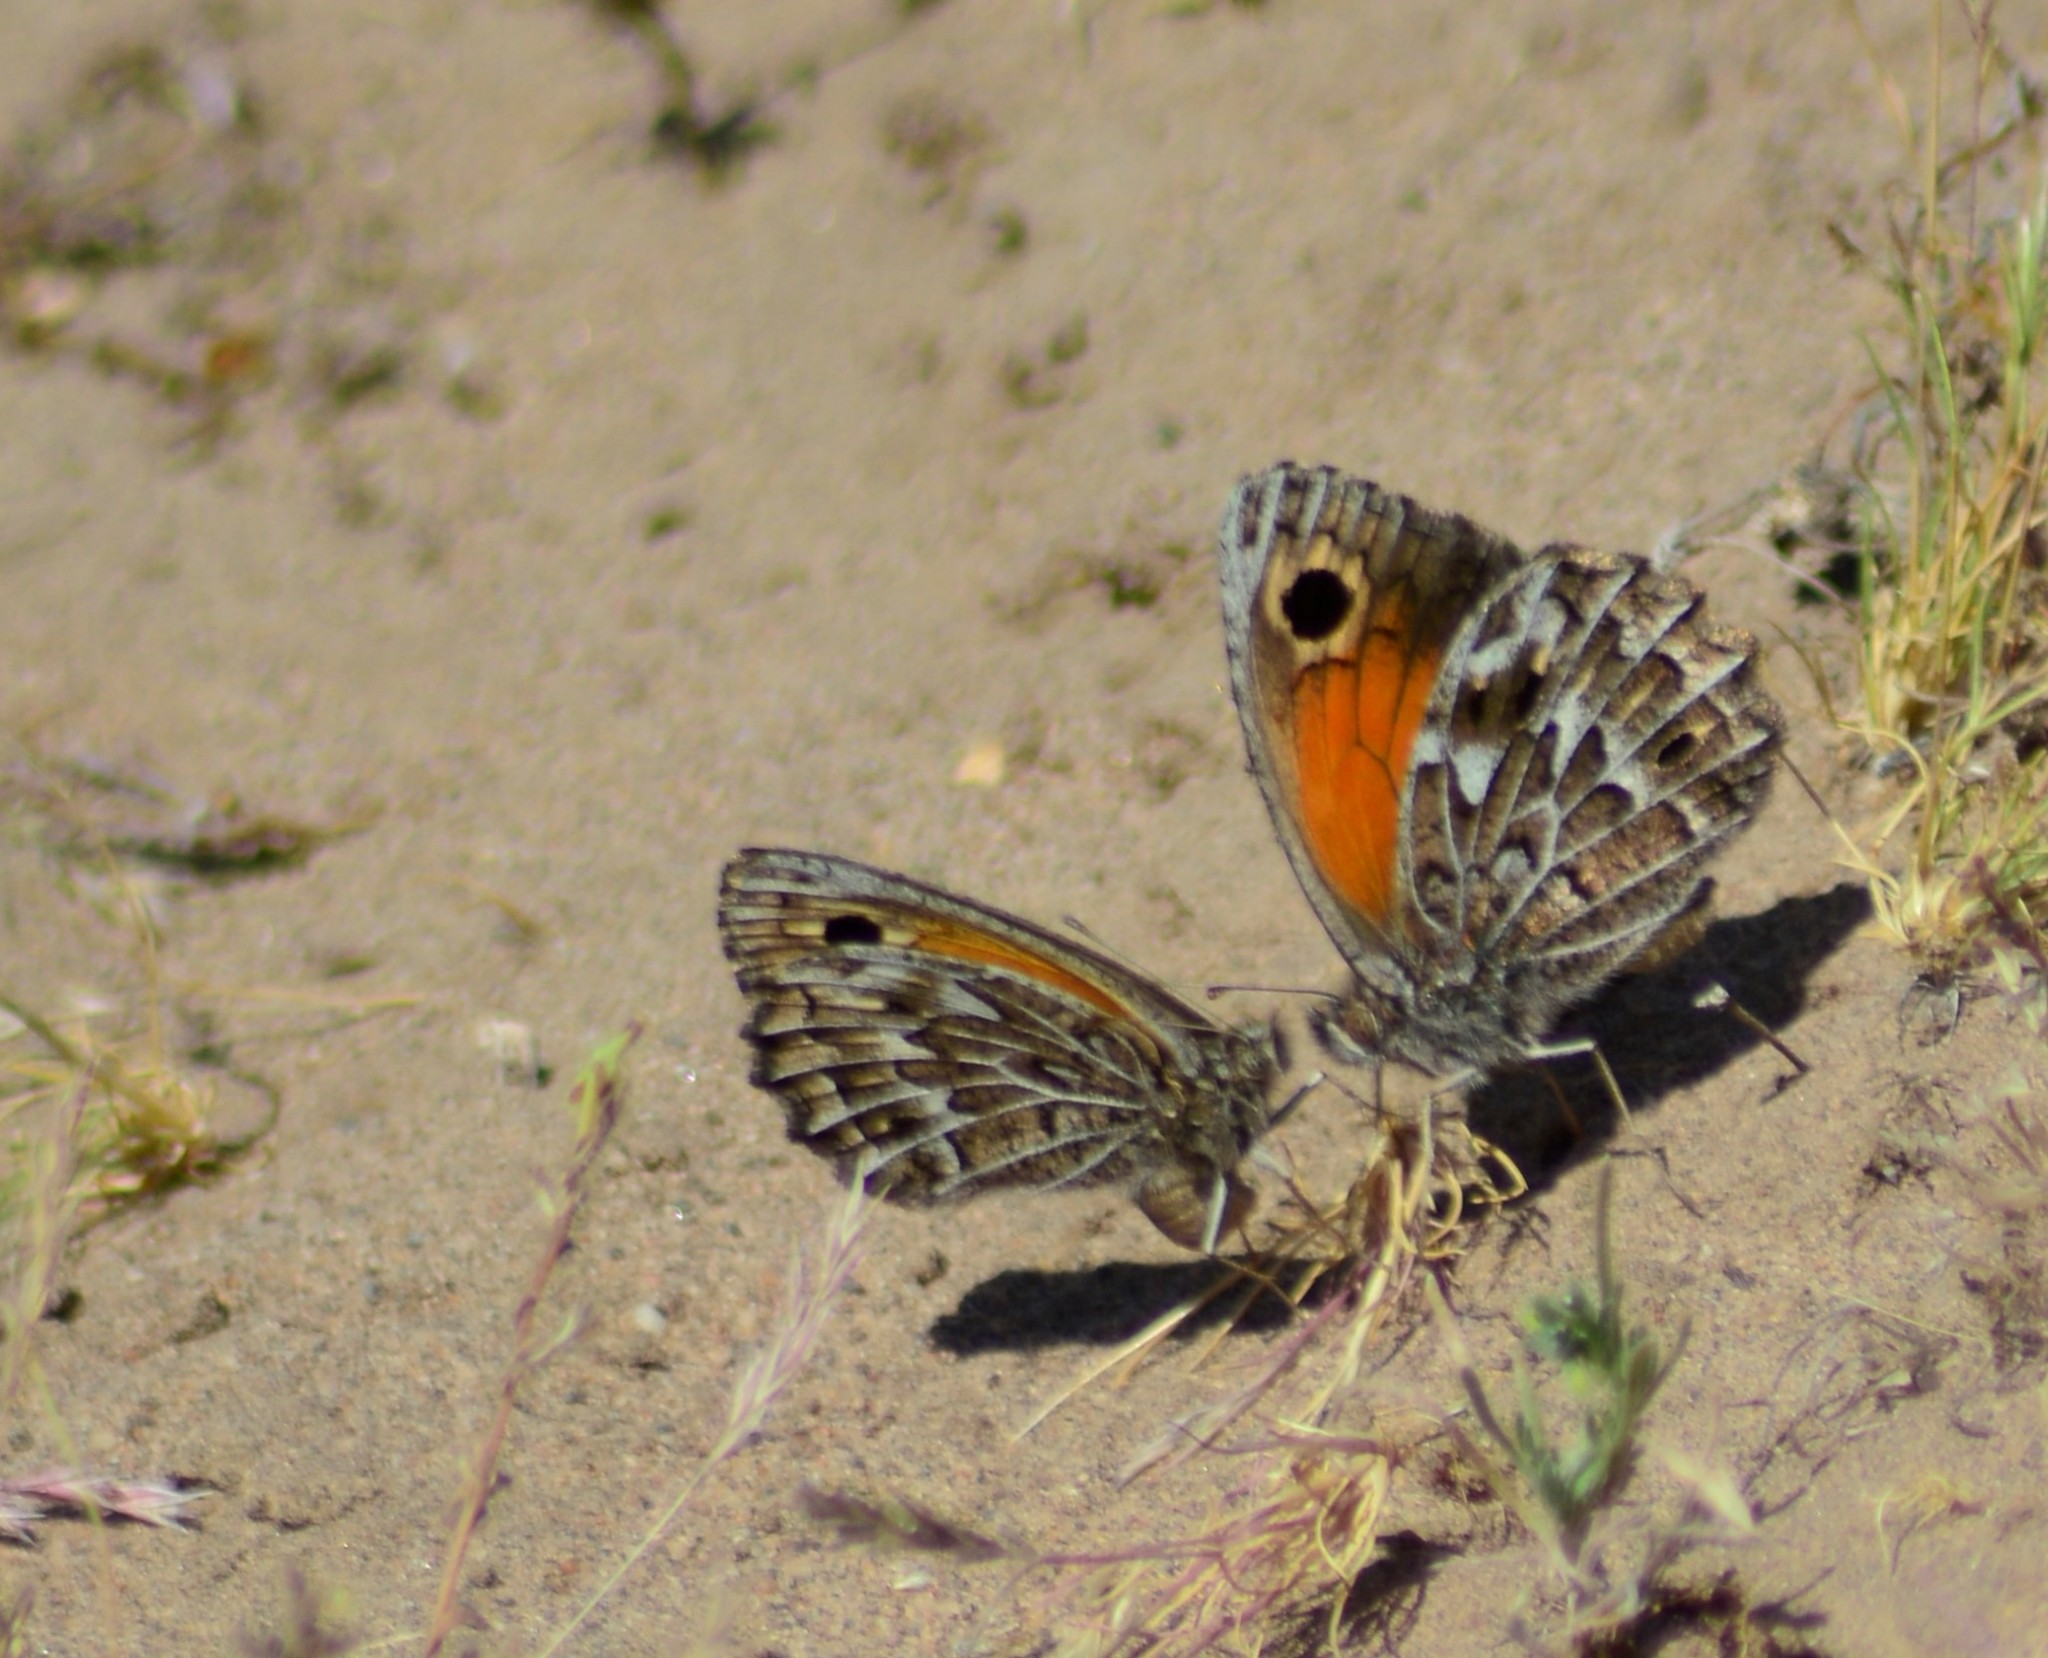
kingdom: Animalia
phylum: Arthropoda
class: Insecta
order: Lepidoptera
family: Nymphalidae
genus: Argyrophorus
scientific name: Argyrophorus
